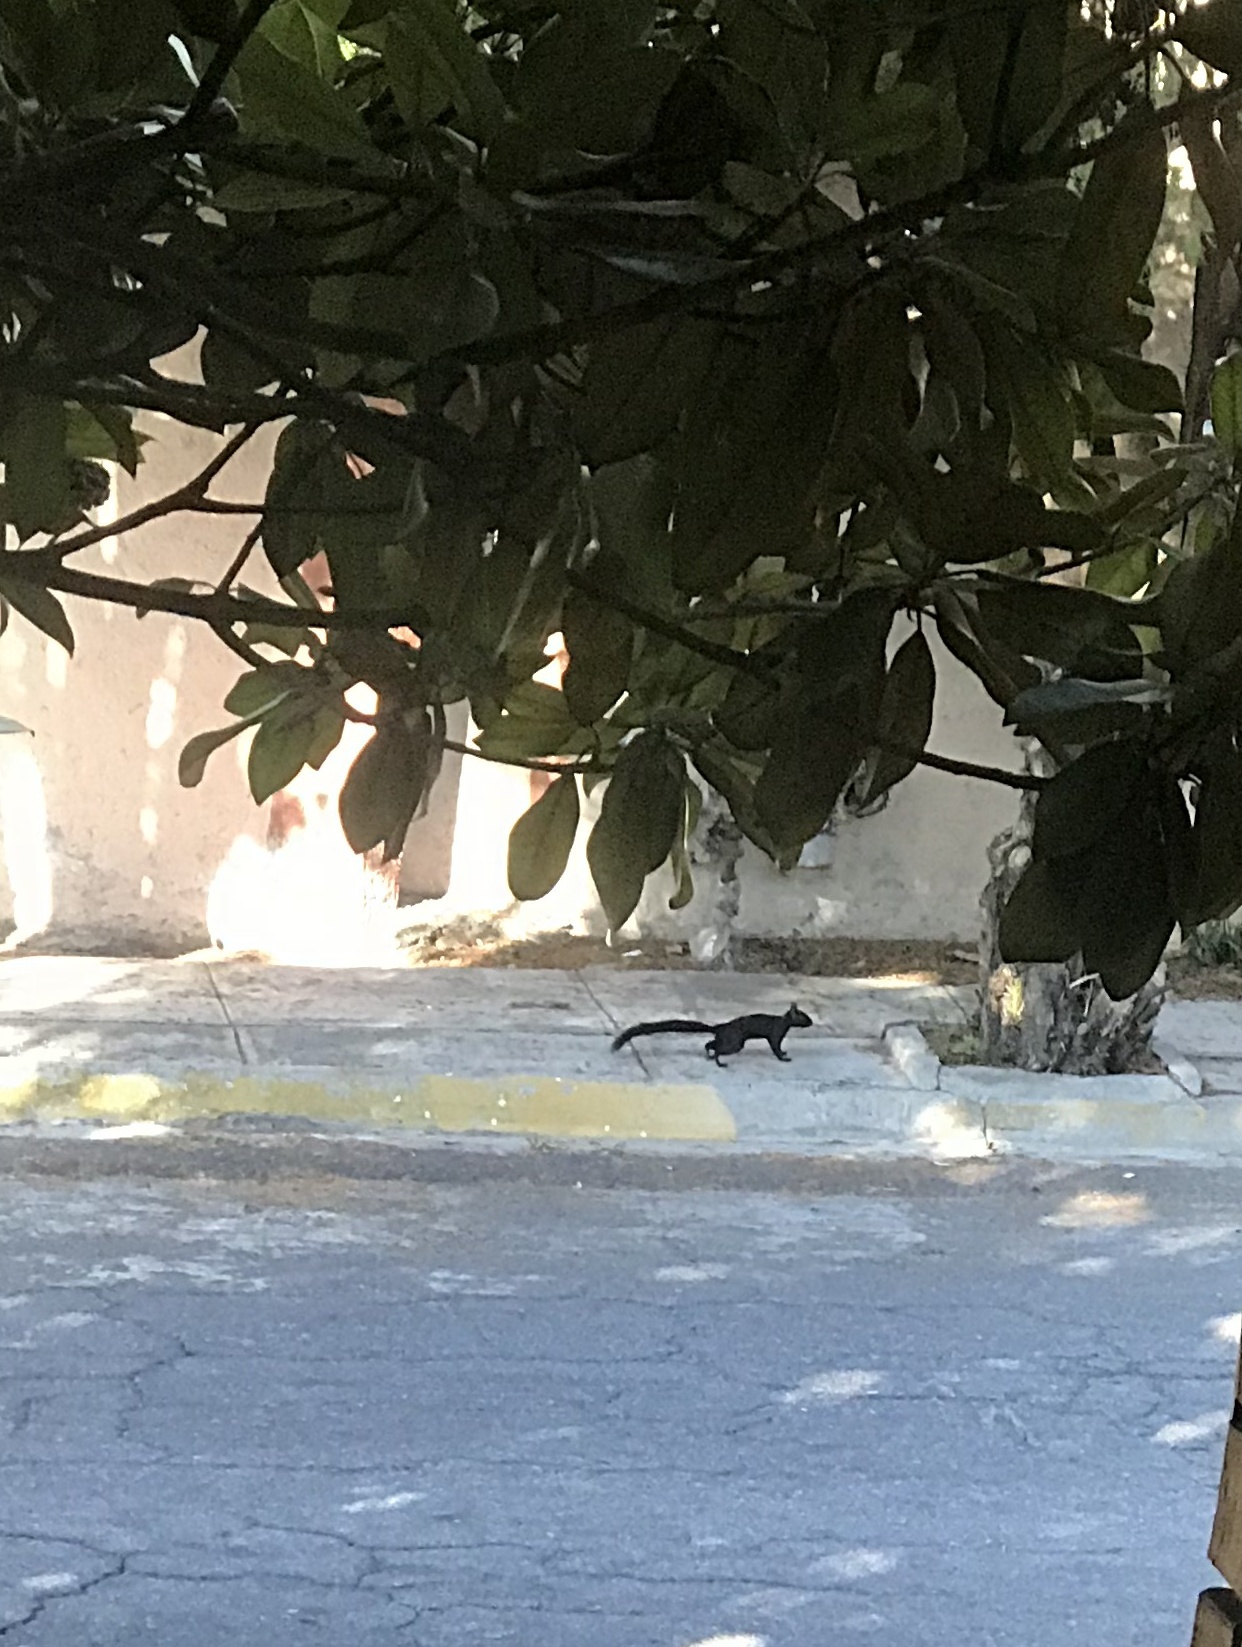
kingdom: Animalia
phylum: Chordata
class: Mammalia
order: Rodentia
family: Sciuridae
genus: Sciurus
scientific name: Sciurus aureogaster
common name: Red-bellied squirrel
